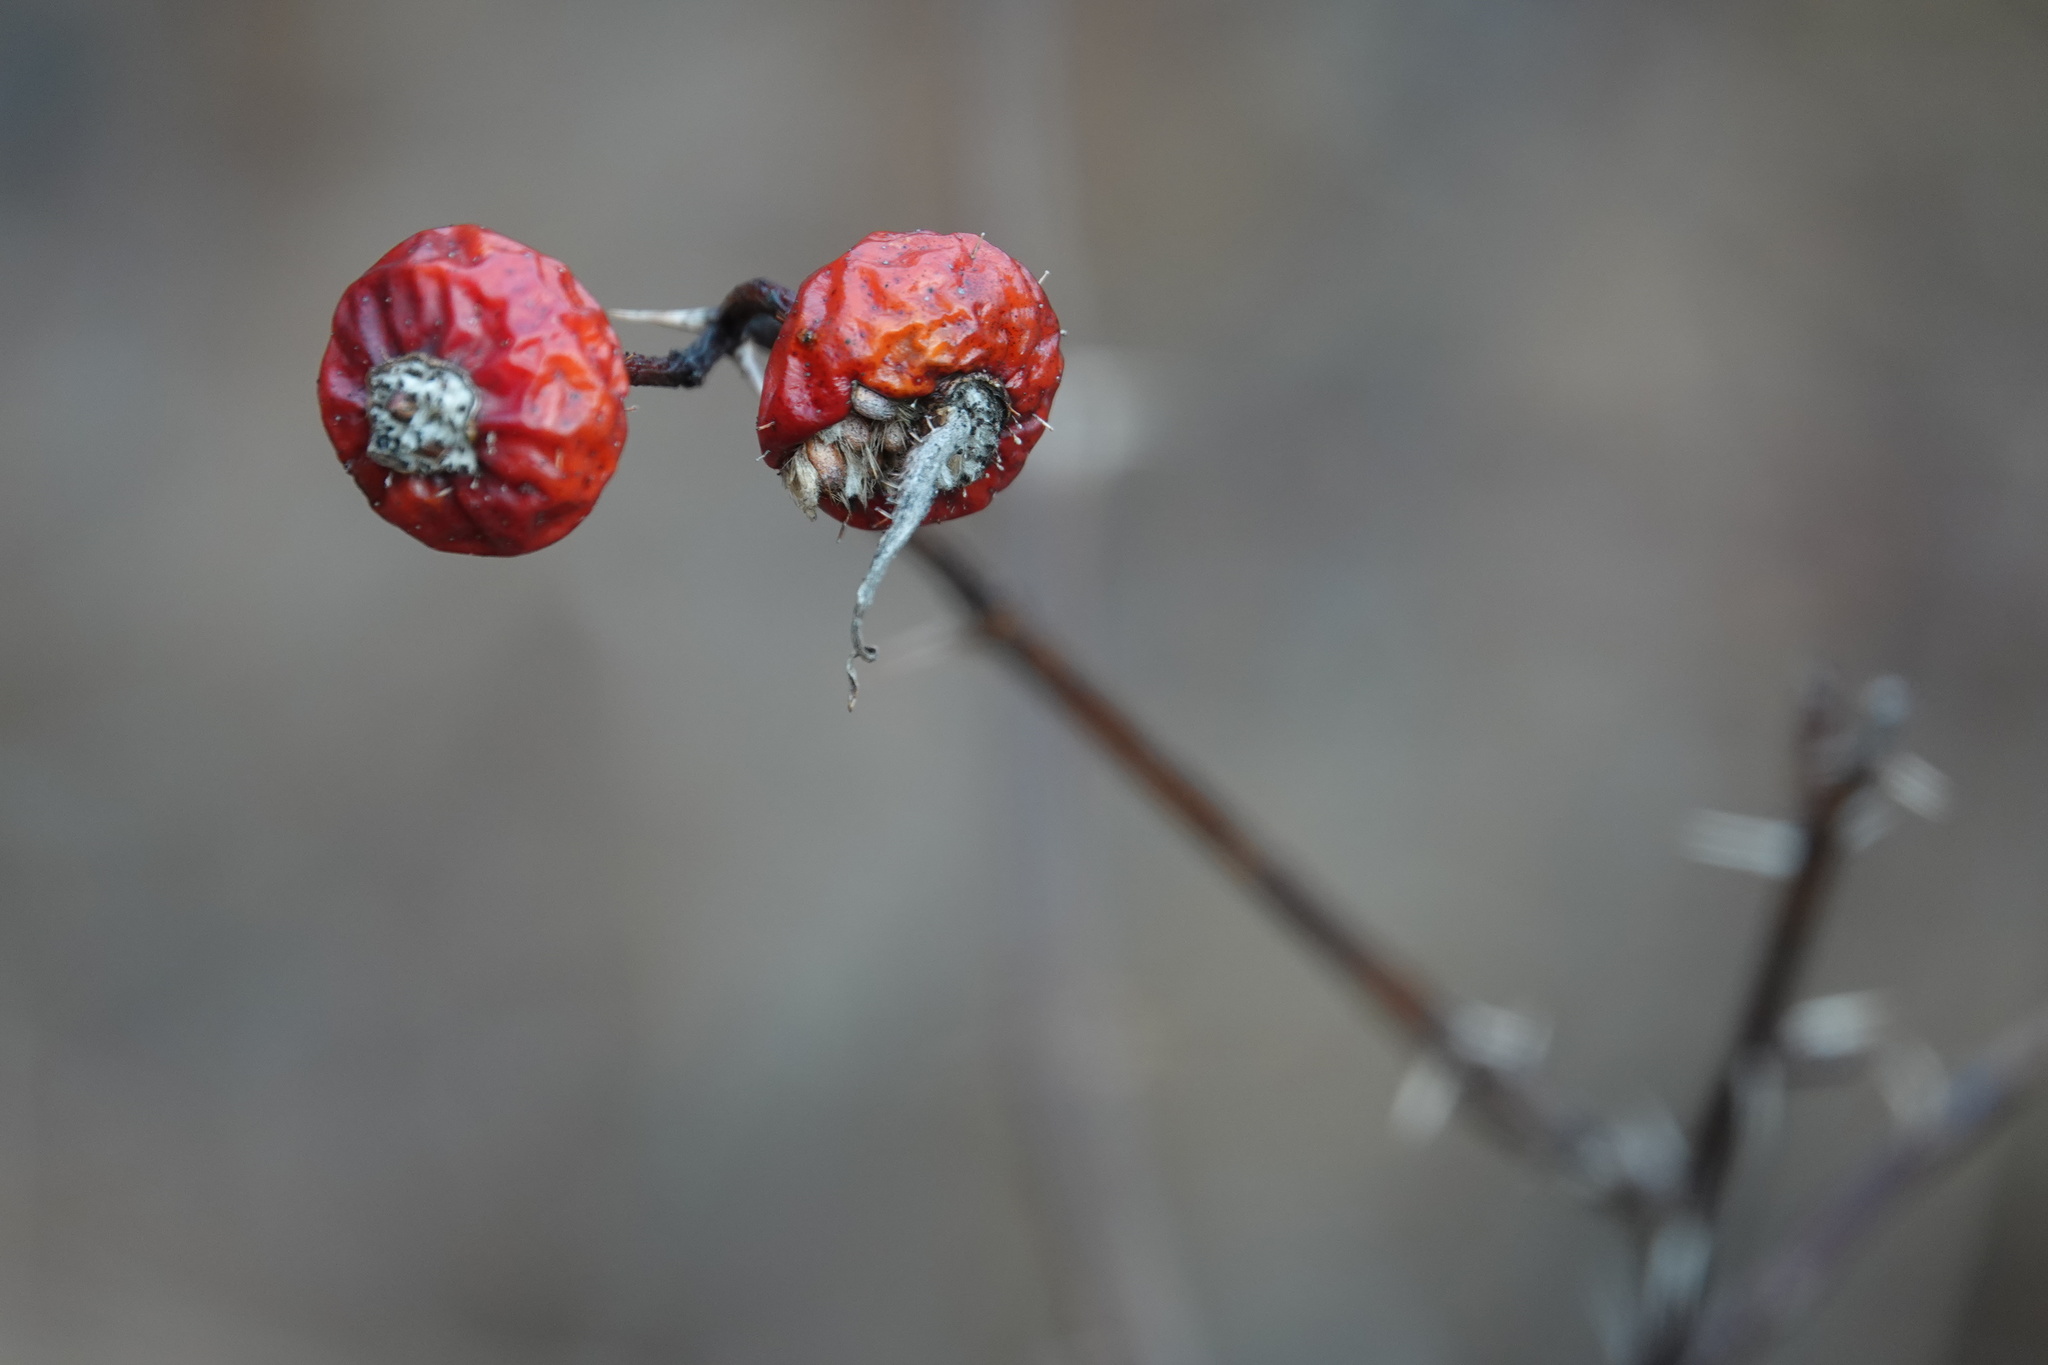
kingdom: Plantae
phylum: Tracheophyta
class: Magnoliopsida
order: Rosales
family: Rosaceae
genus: Rosa
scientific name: Rosa rugosa
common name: Japanese rose
